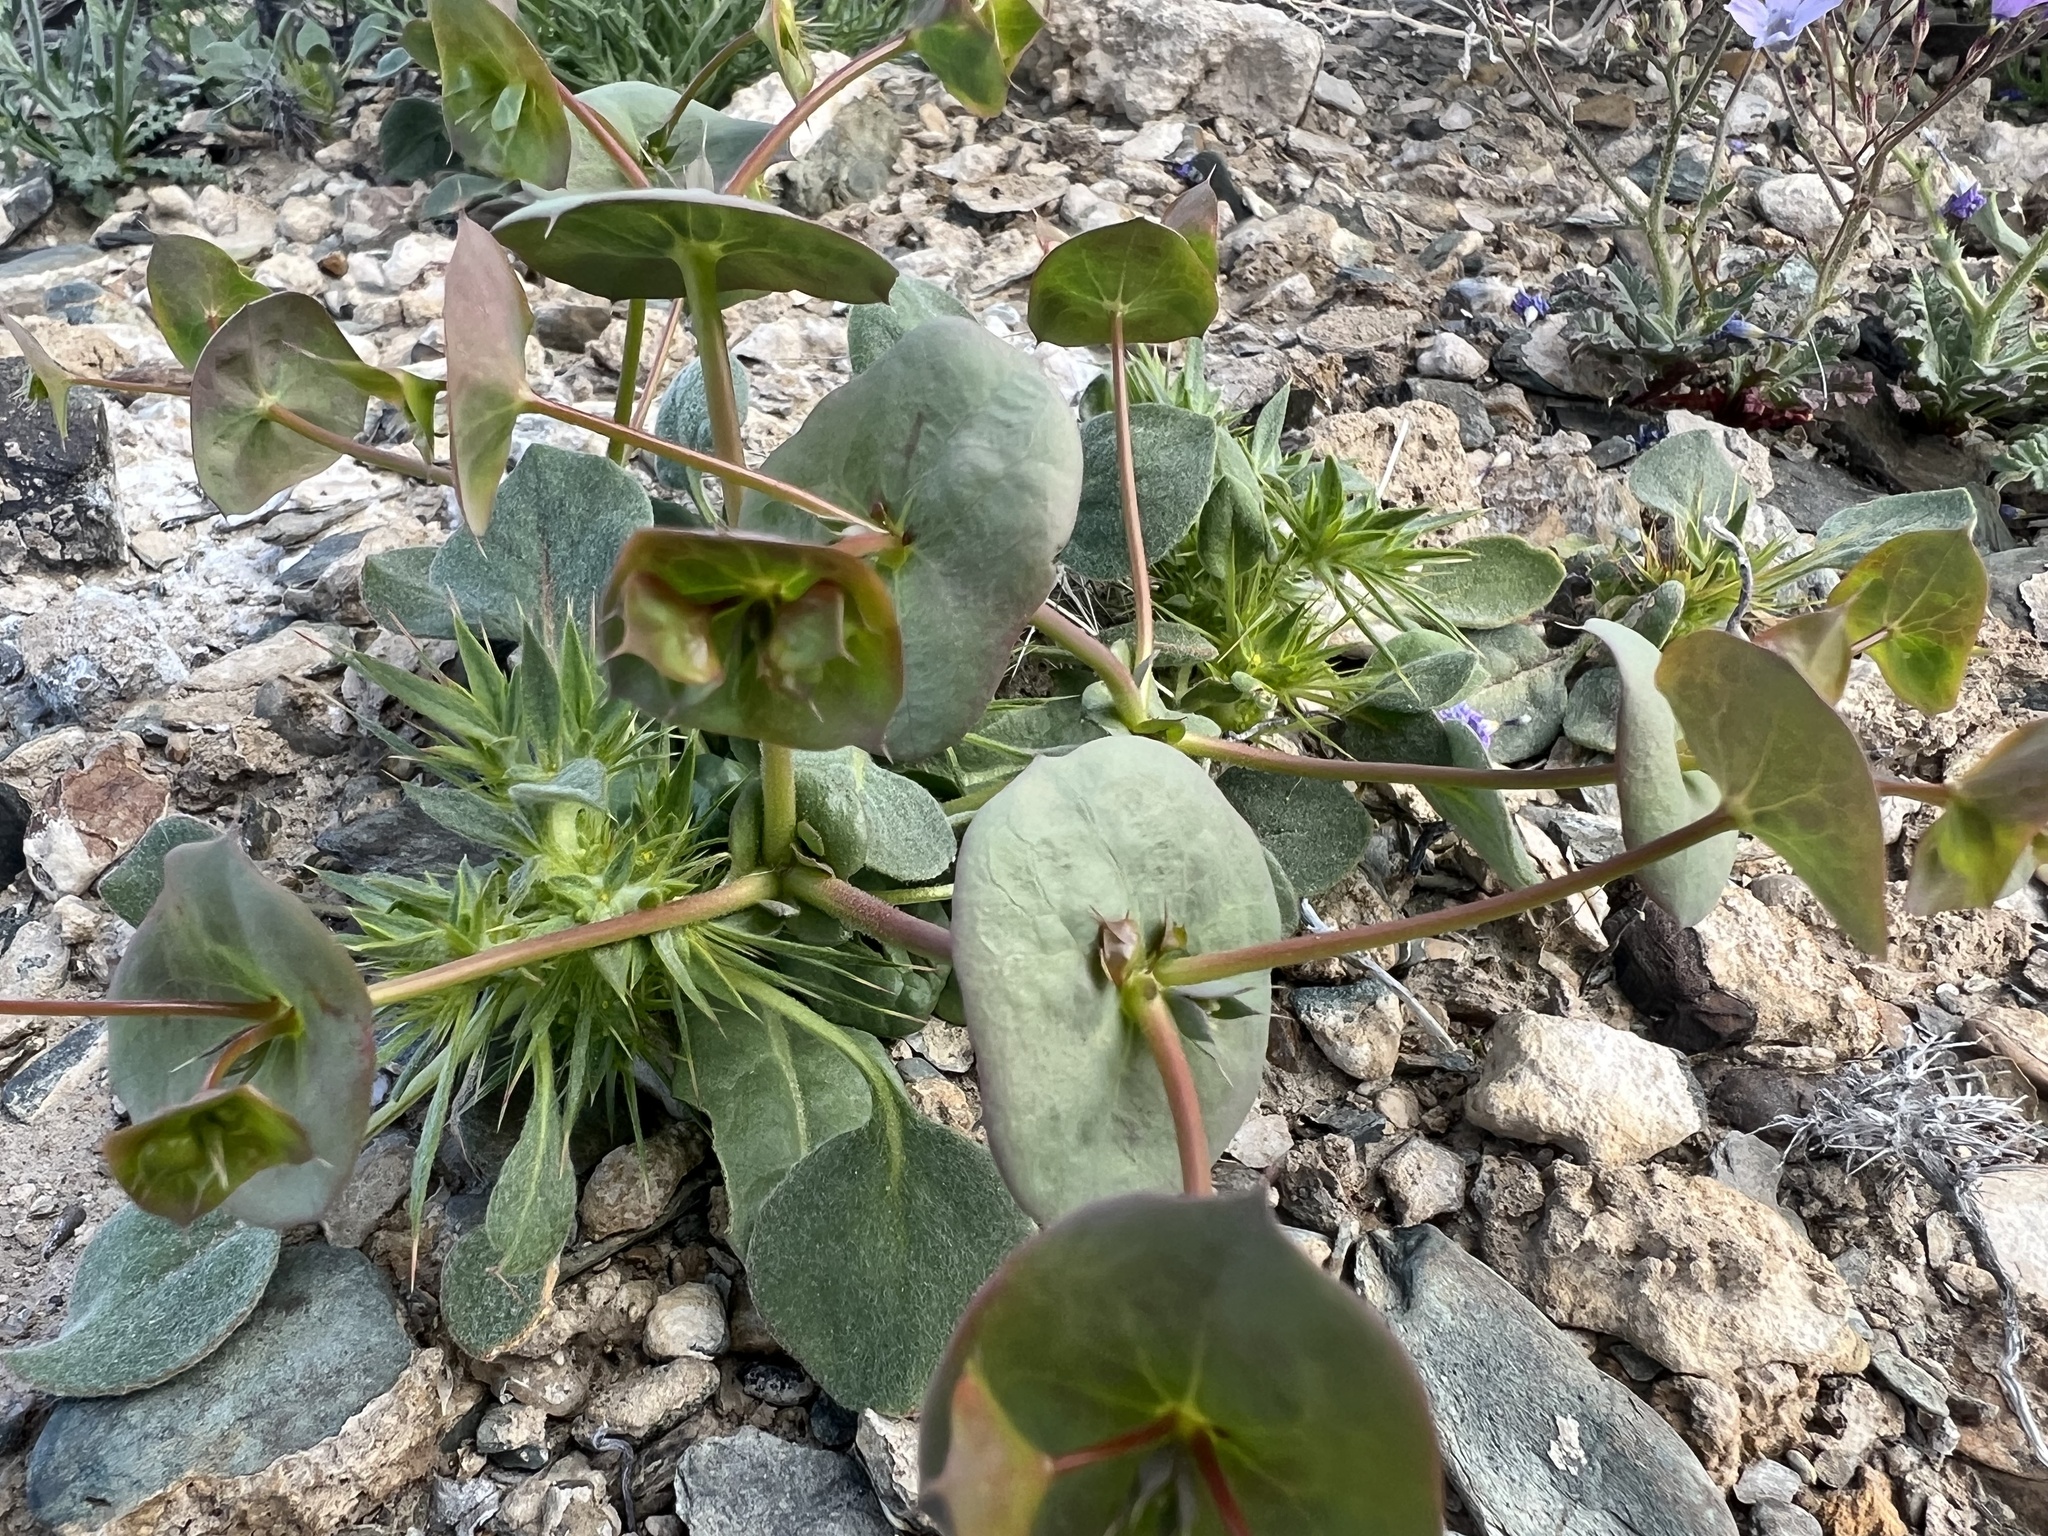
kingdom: Plantae
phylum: Tracheophyta
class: Magnoliopsida
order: Caryophyllales
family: Polygonaceae
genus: Oxytheca
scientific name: Oxytheca perfoliata
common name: Round-leaf puncturebract
